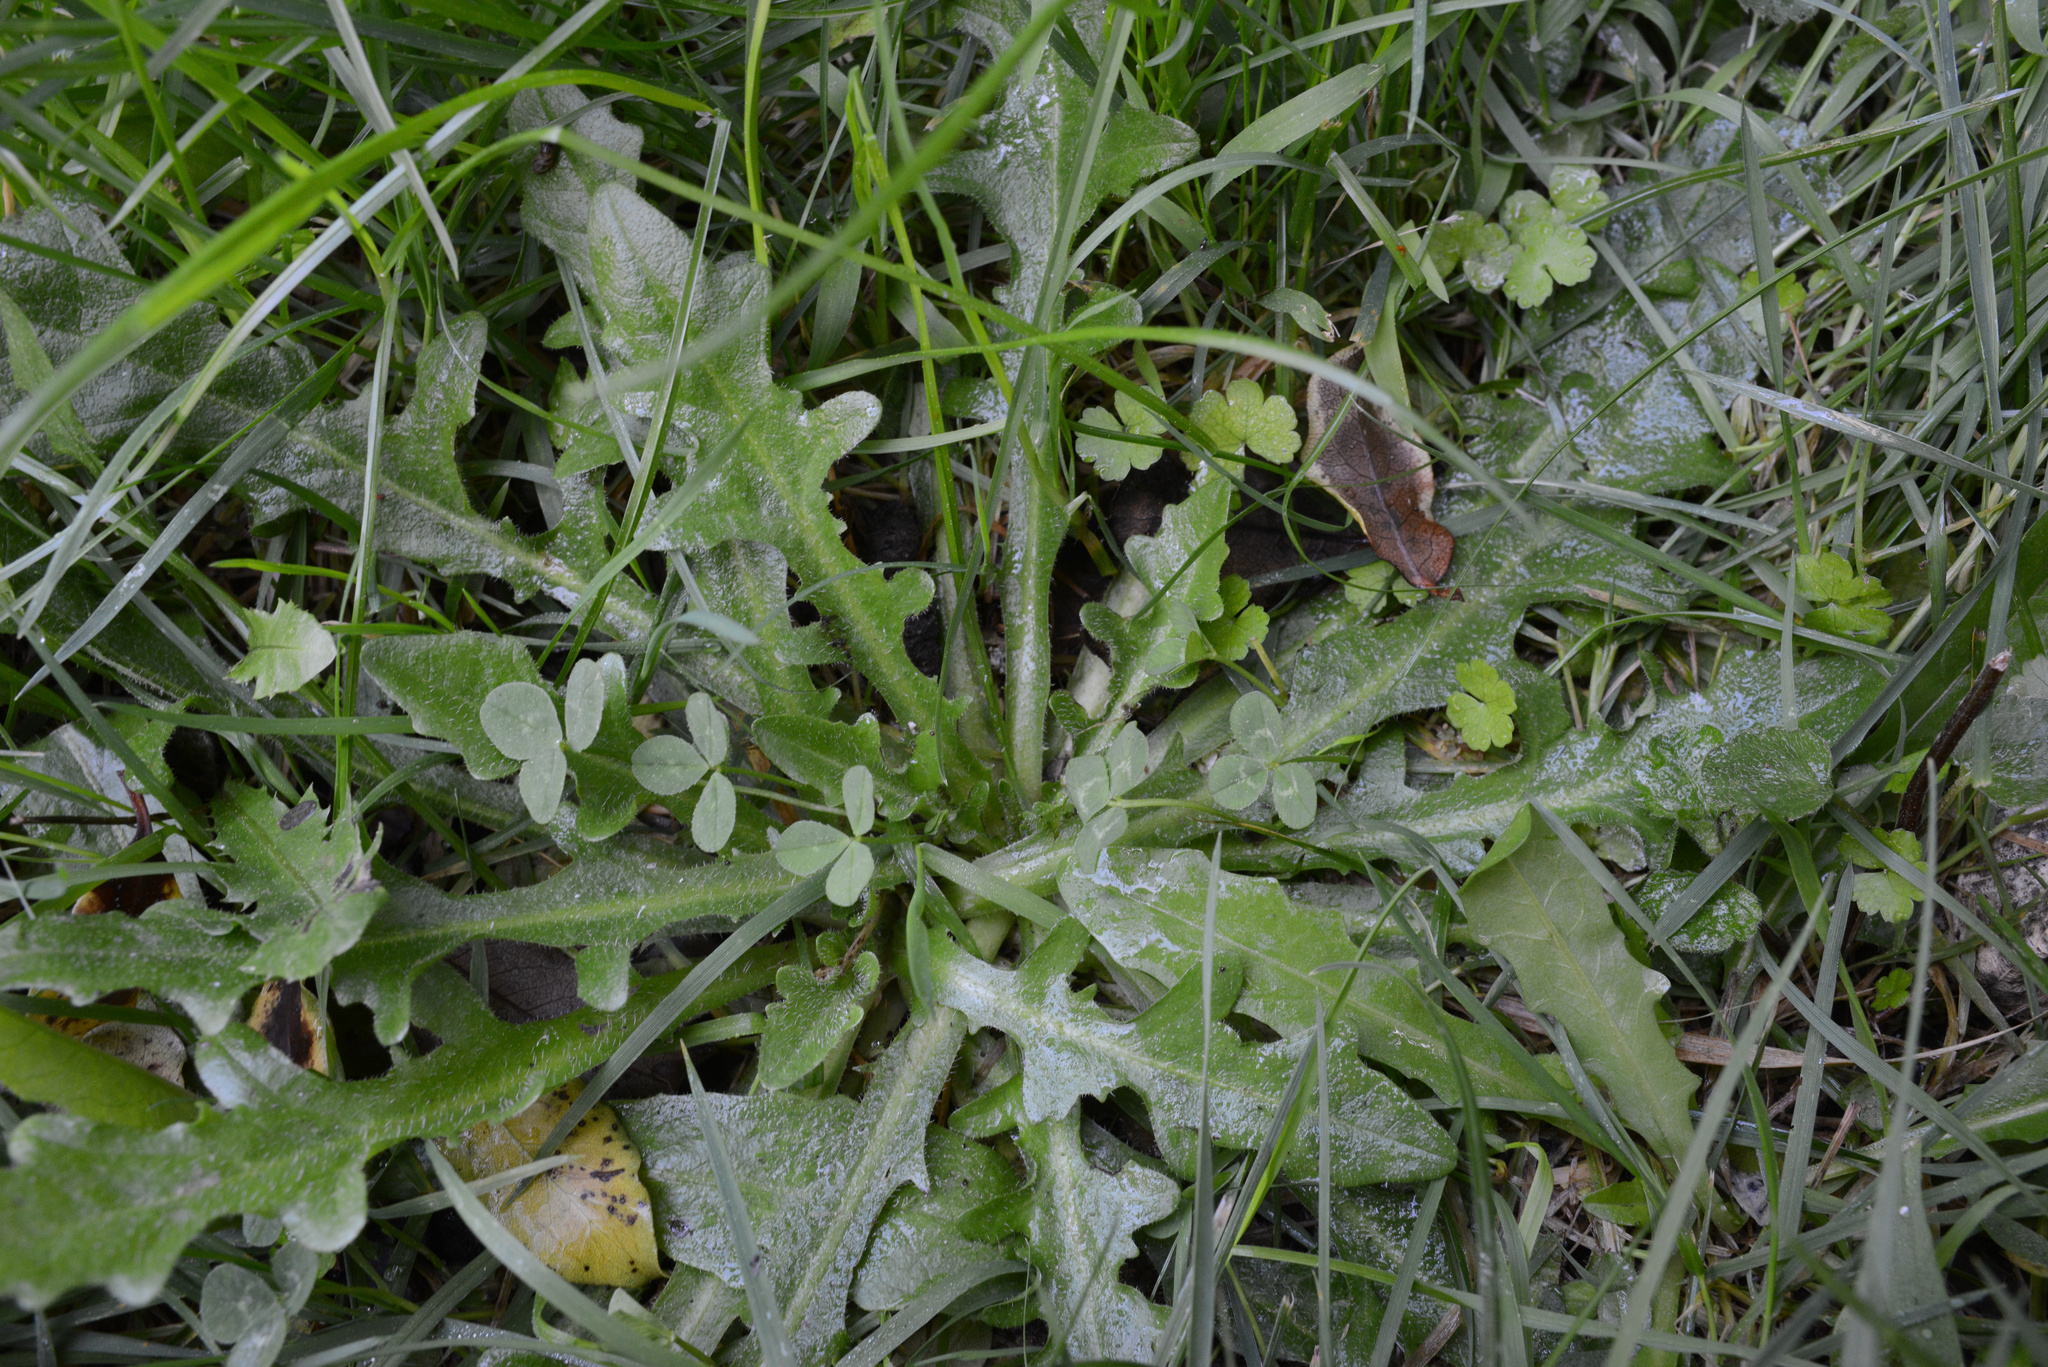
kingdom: Plantae
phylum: Tracheophyta
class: Magnoliopsida
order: Asterales
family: Asteraceae
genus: Hypochaeris
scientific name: Hypochaeris radicata
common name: Flatweed
